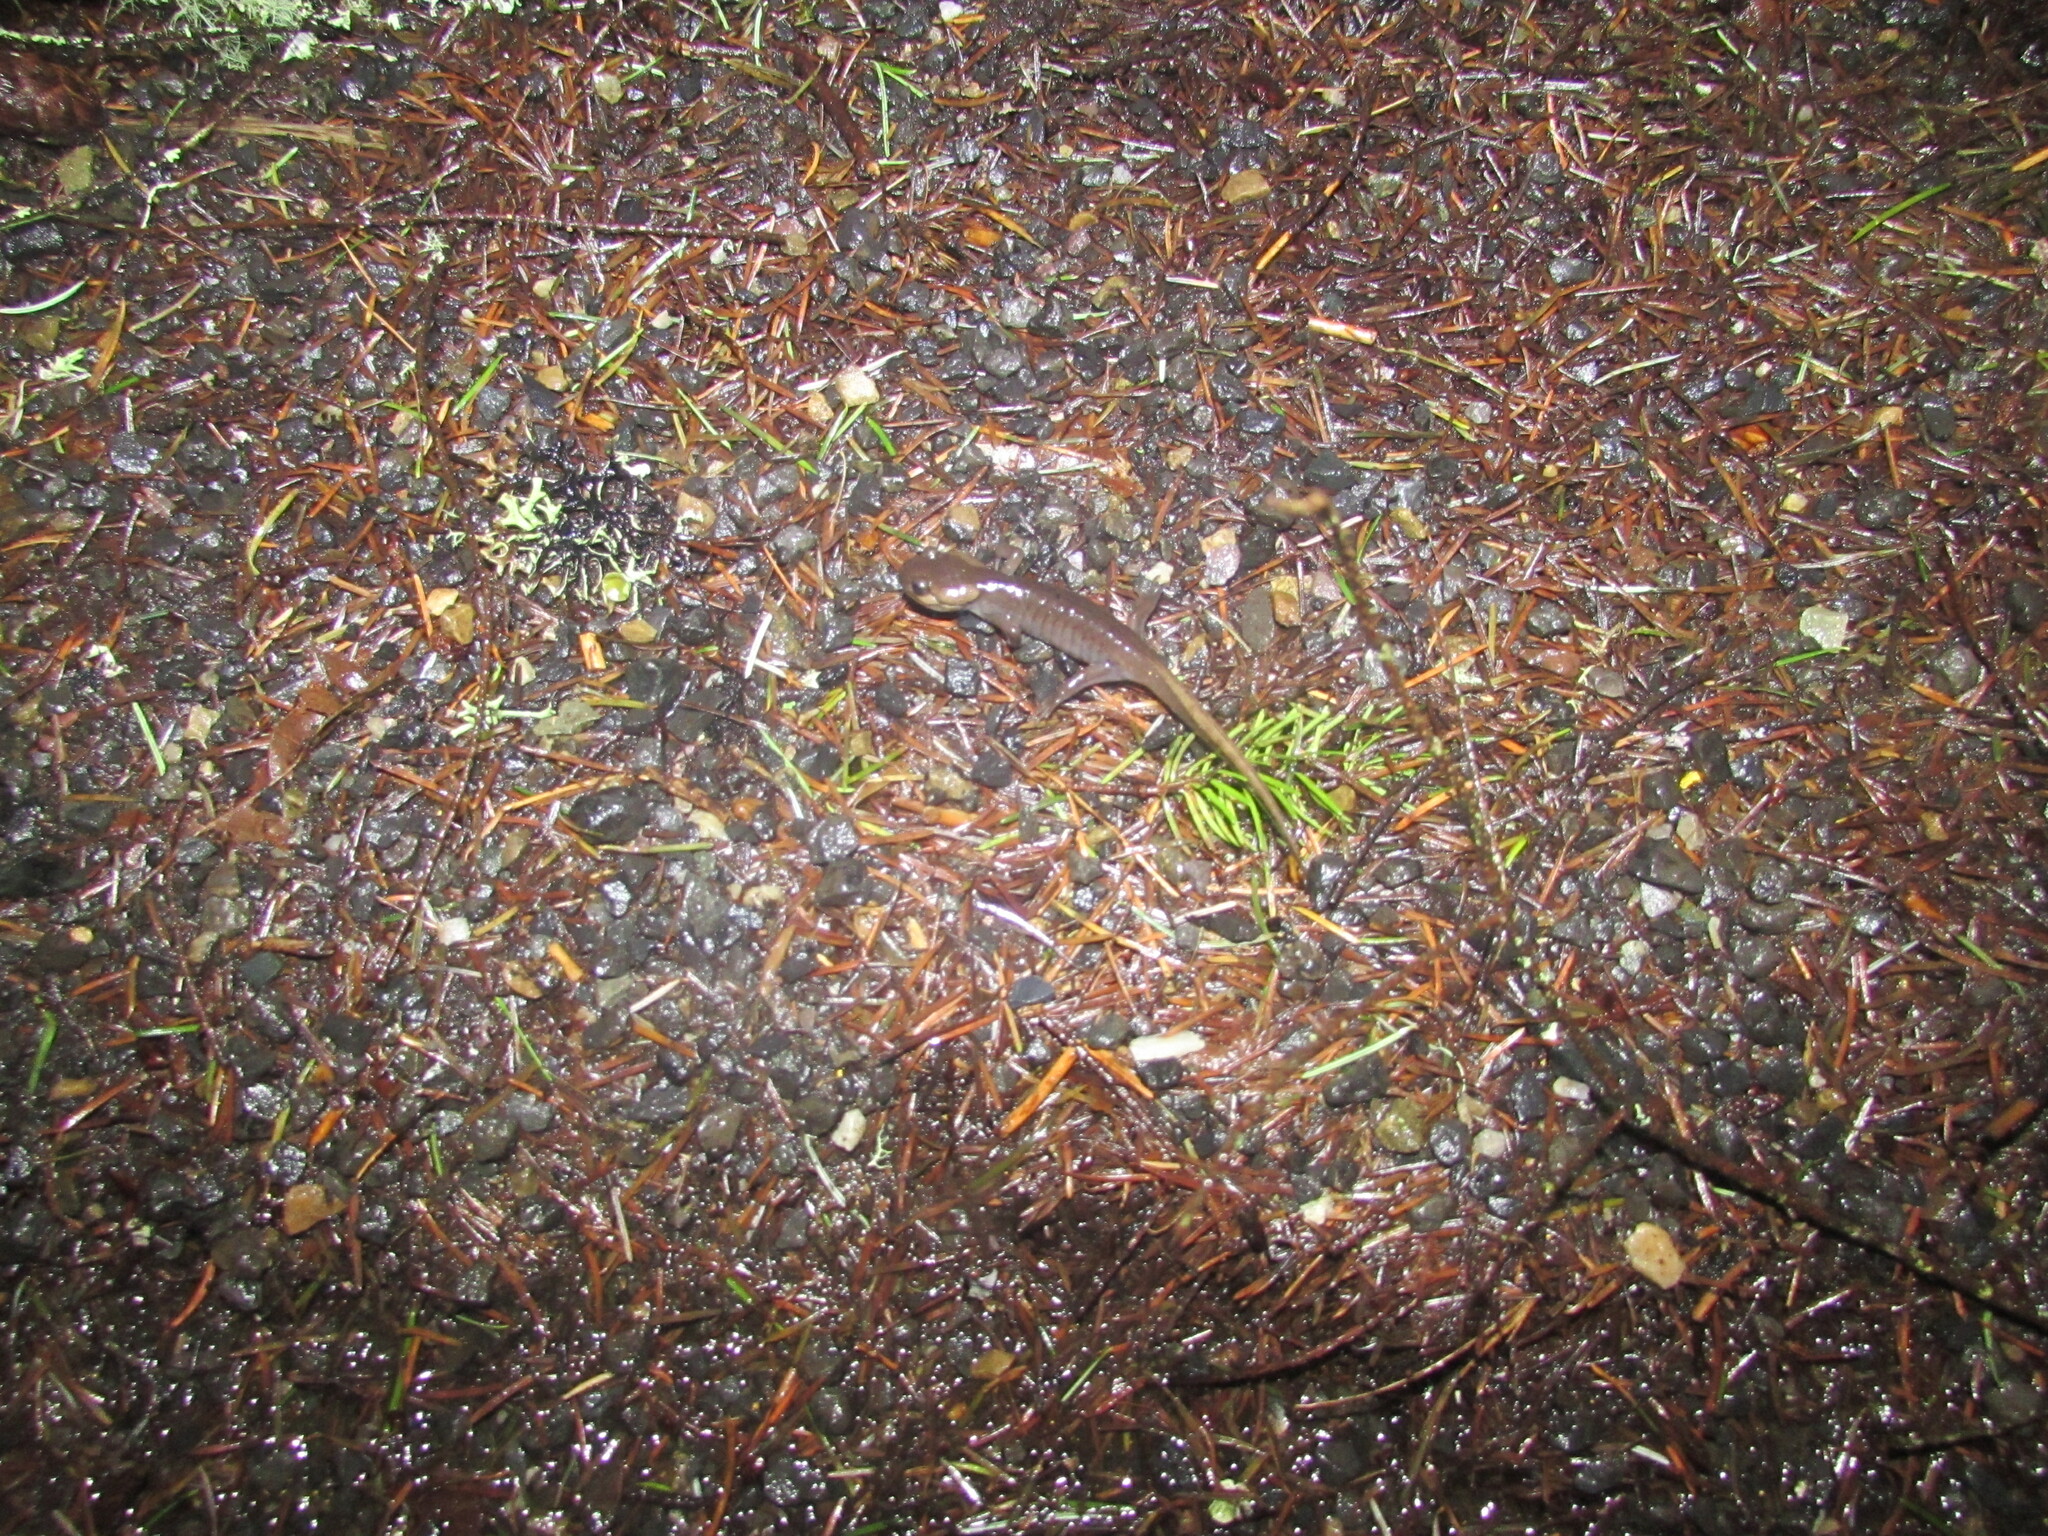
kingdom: Animalia
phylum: Chordata
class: Amphibia
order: Caudata
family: Ambystomatidae
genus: Ambystoma
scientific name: Ambystoma gracile
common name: Northwestern salamander
